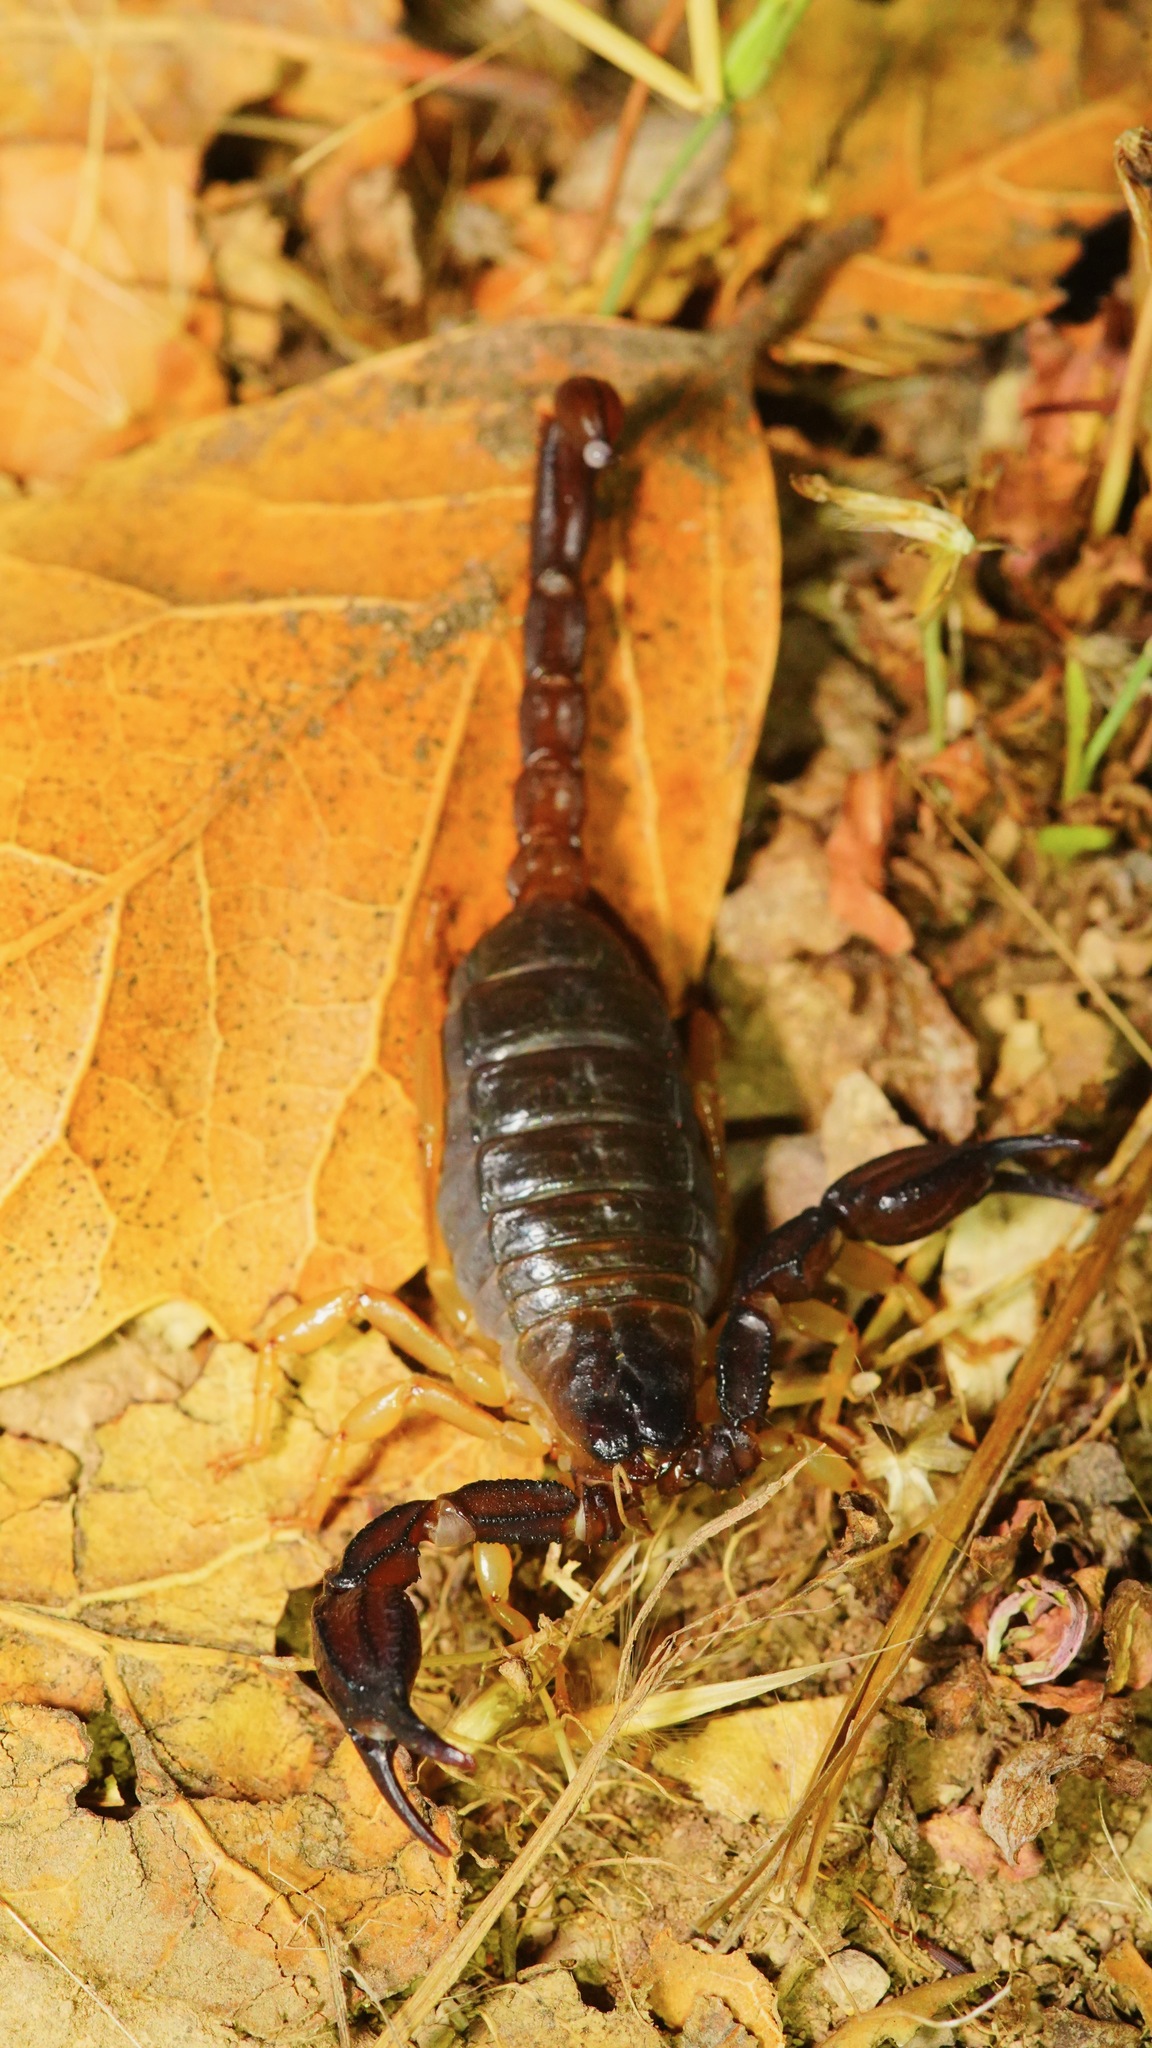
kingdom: Animalia
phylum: Arthropoda
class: Arachnida
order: Scorpiones
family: Chactidae
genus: Uroctonus
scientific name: Uroctonus mordax
